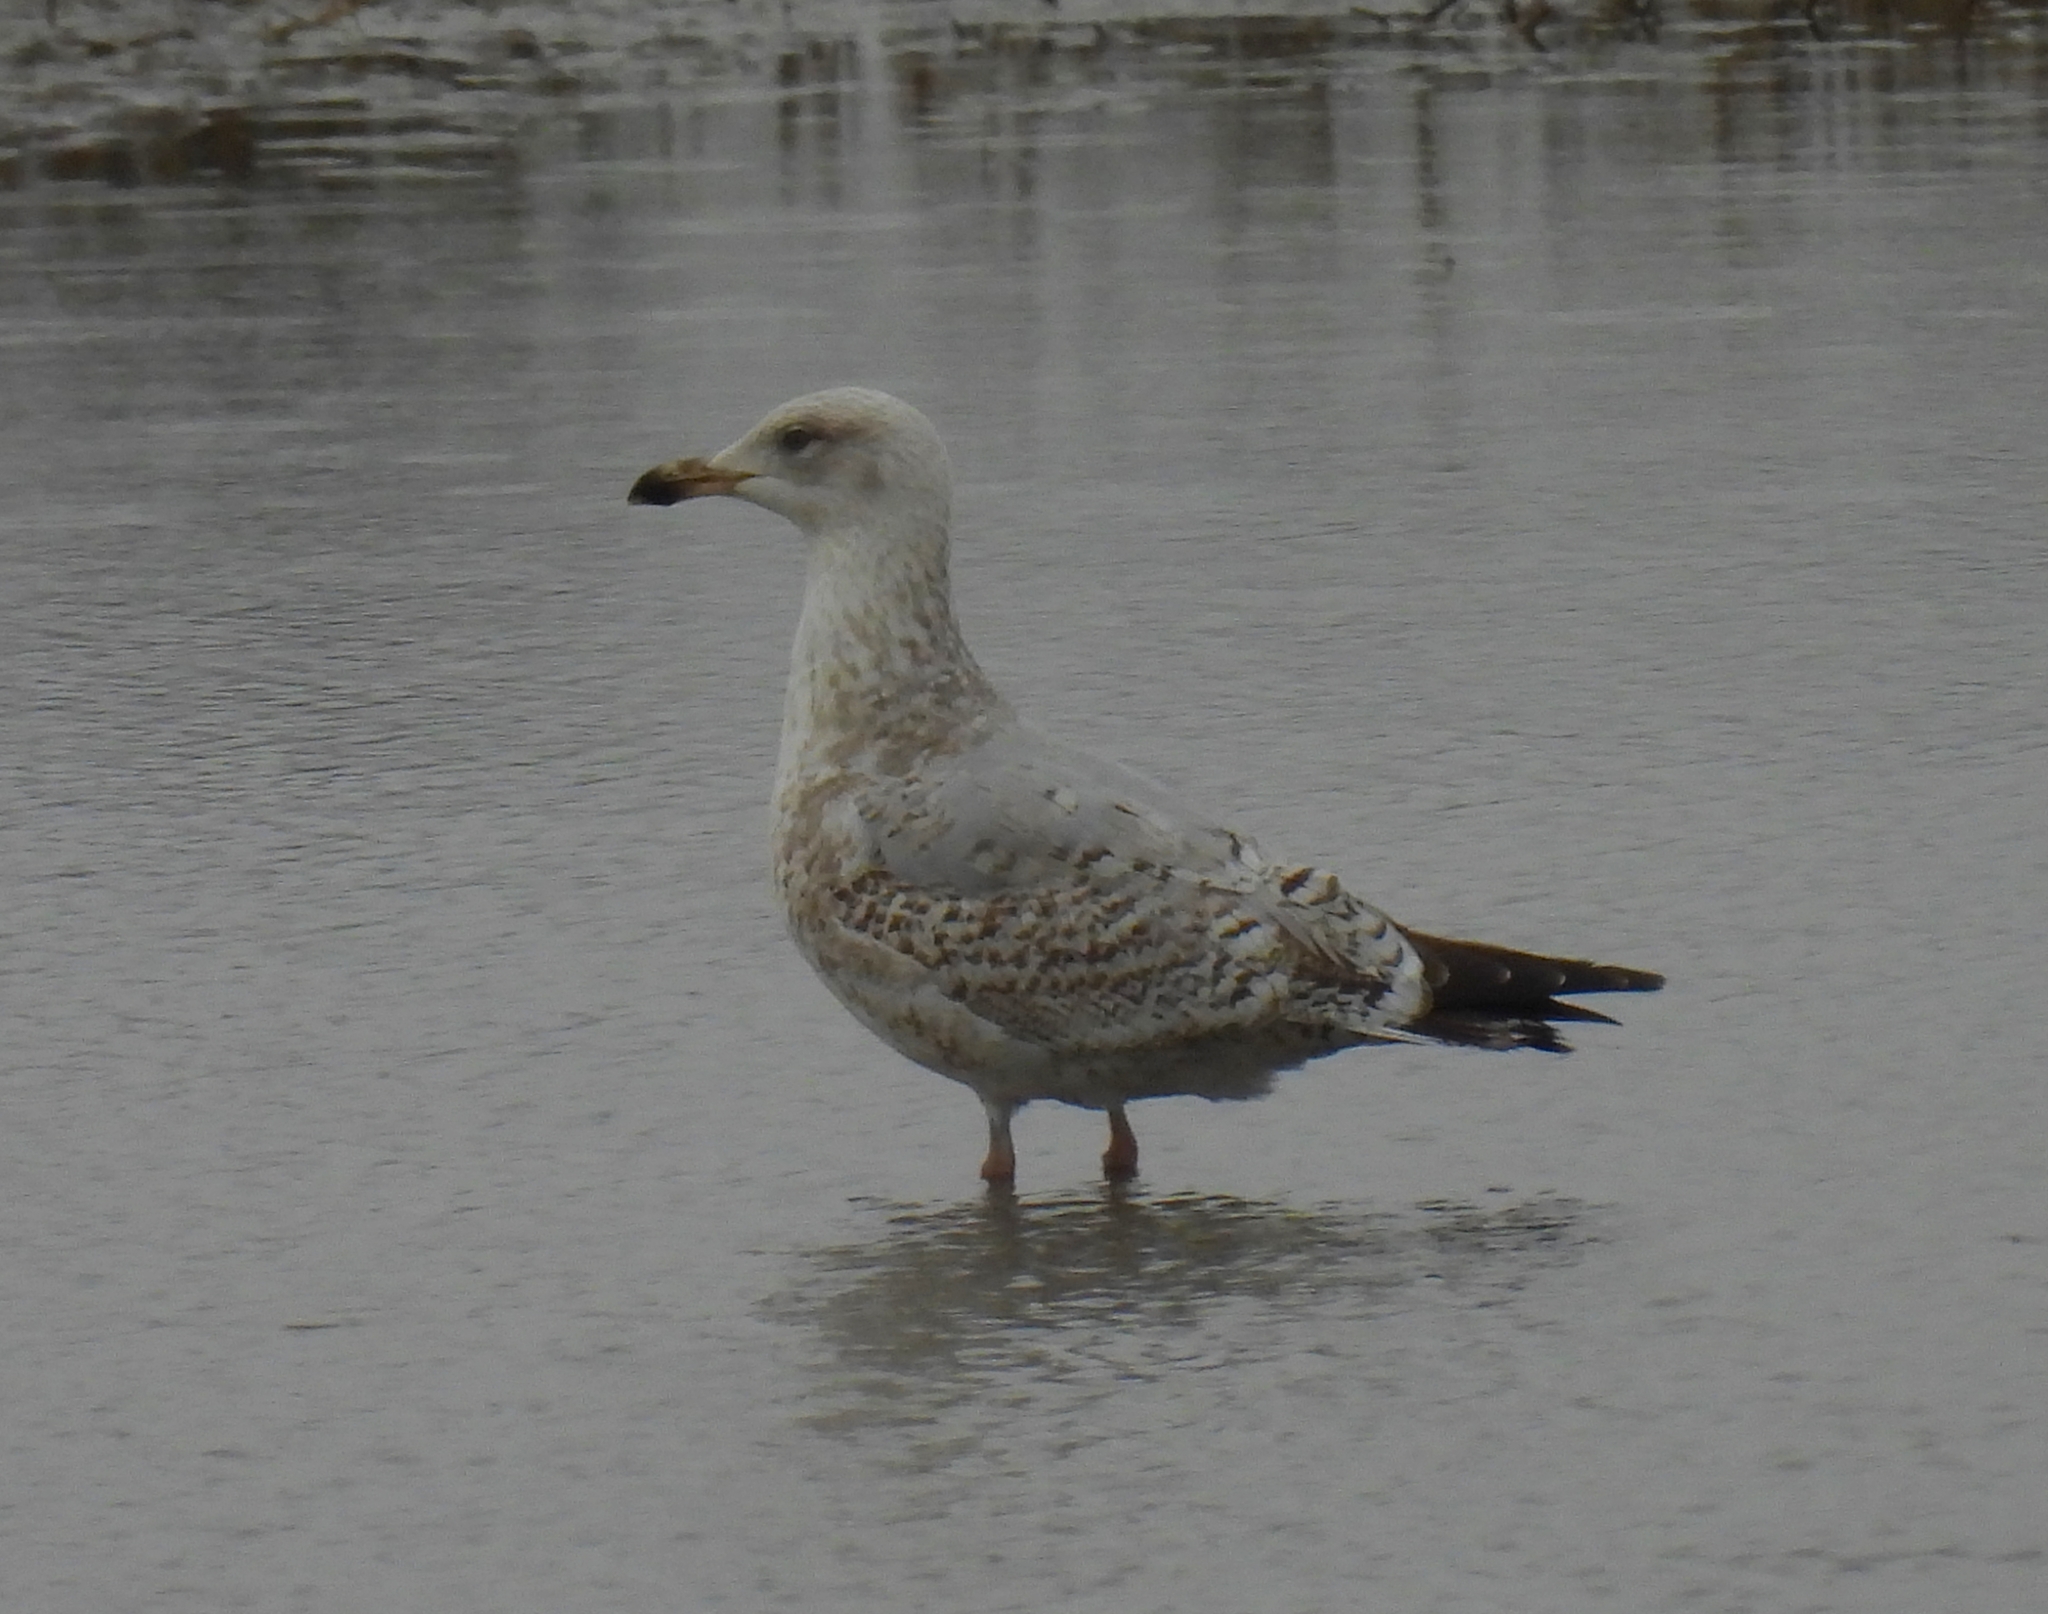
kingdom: Animalia
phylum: Chordata
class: Aves
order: Charadriiformes
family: Laridae
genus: Larus
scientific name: Larus argentatus
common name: Herring gull
